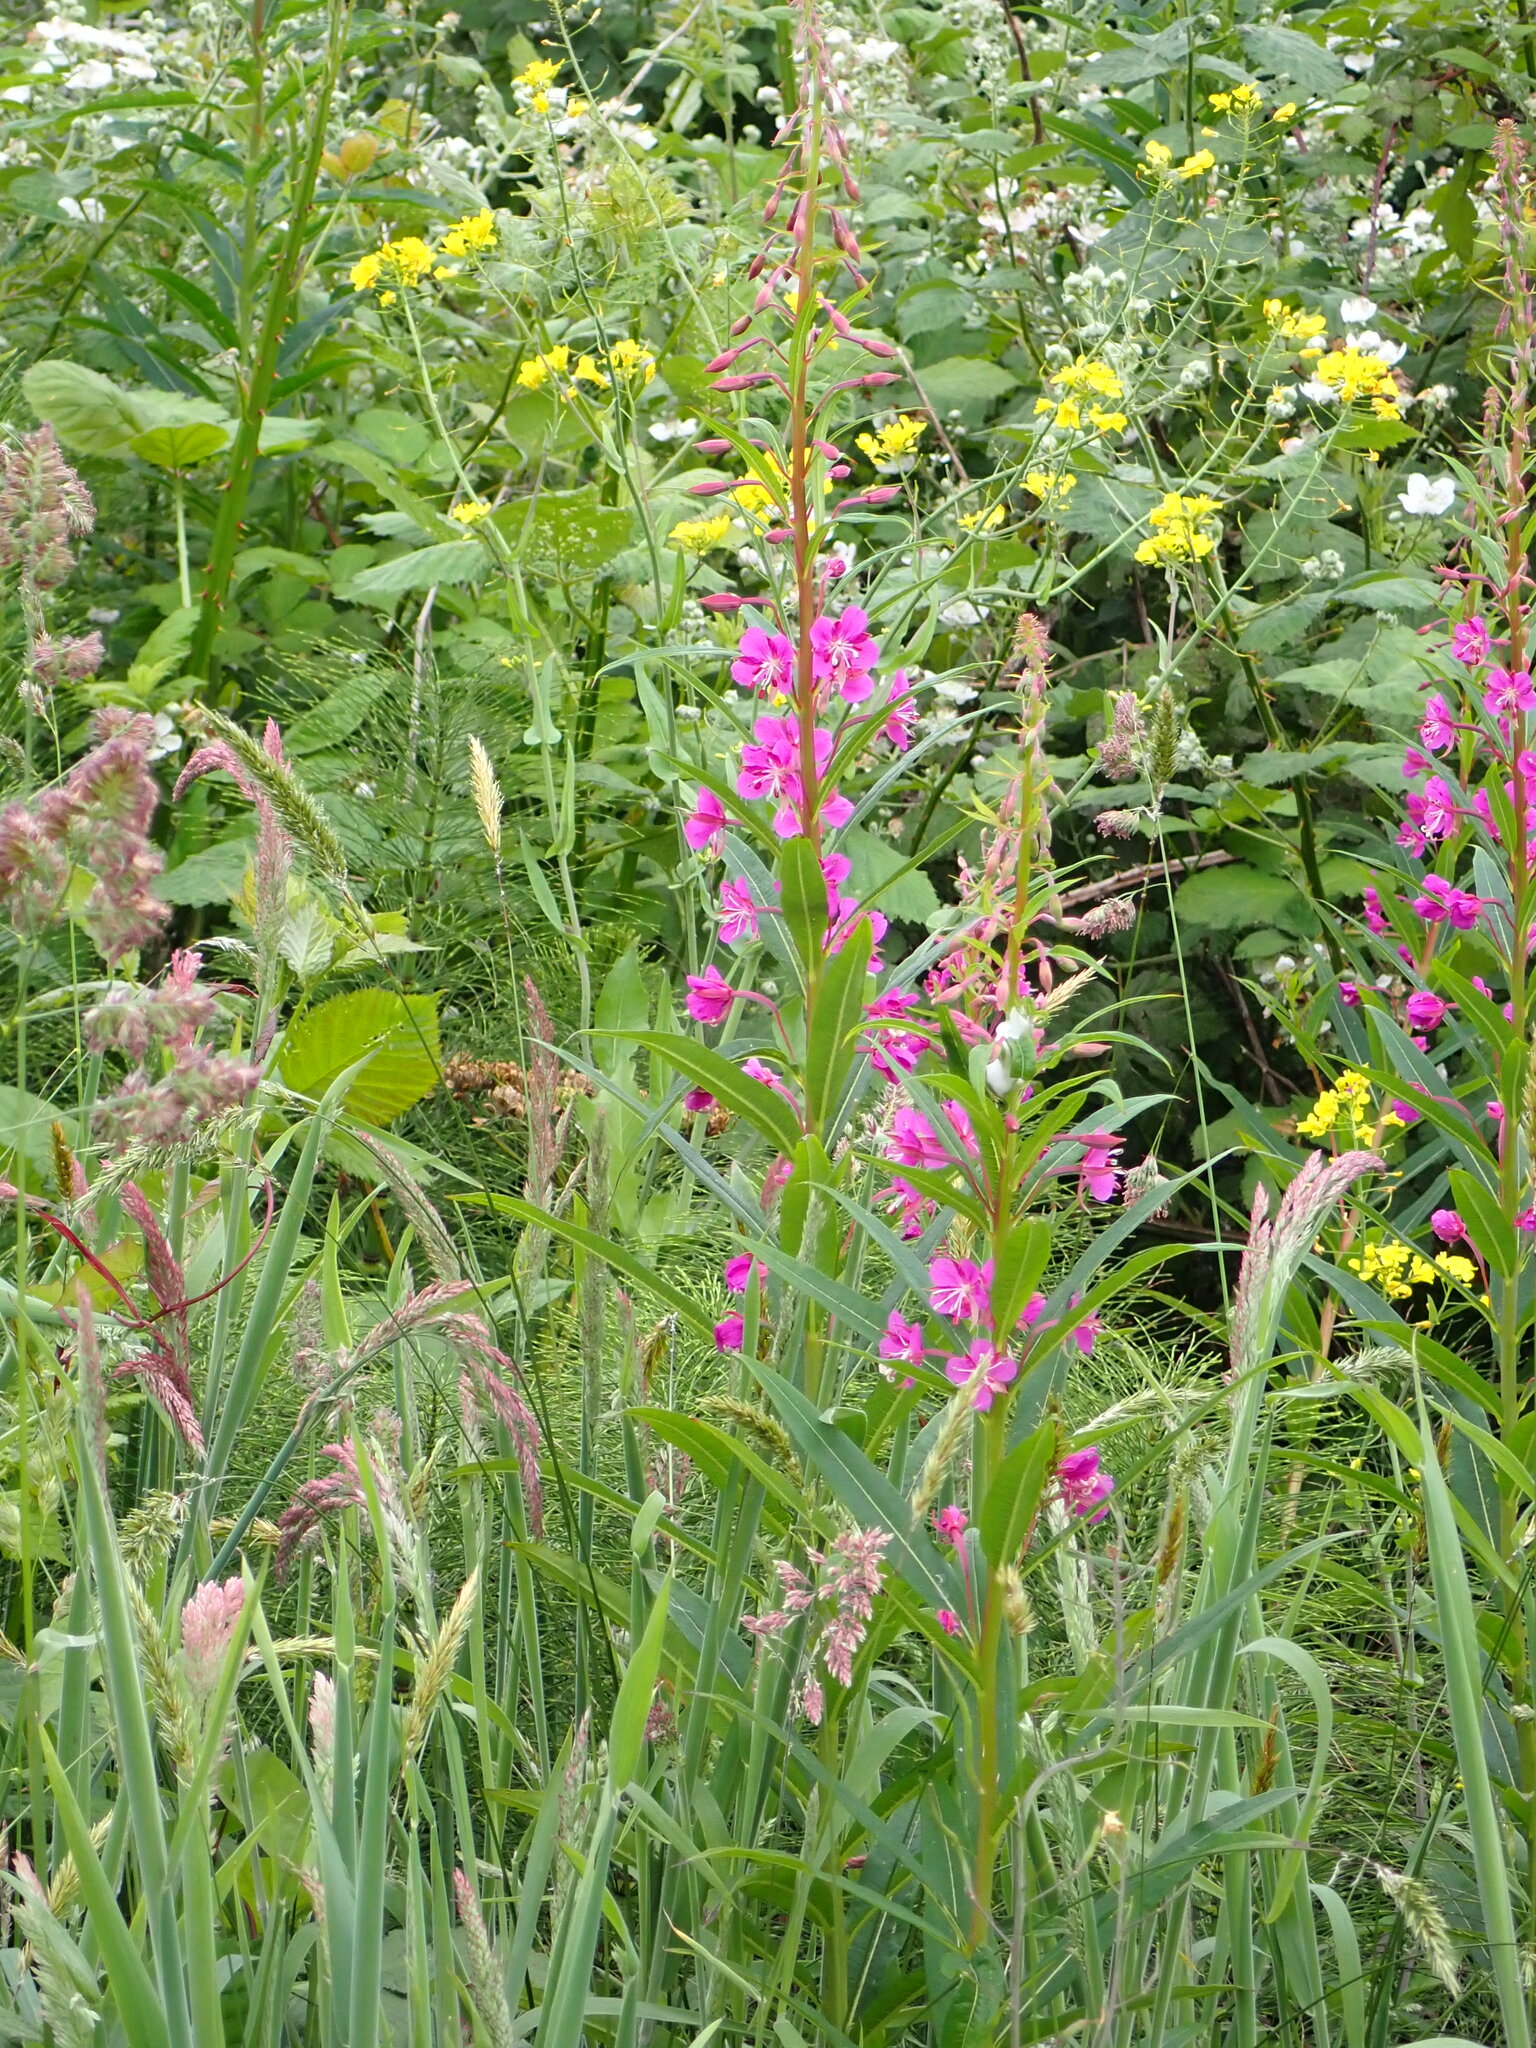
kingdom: Plantae
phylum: Tracheophyta
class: Magnoliopsida
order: Myrtales
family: Onagraceae
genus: Chamaenerion
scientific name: Chamaenerion angustifolium
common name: Fireweed
